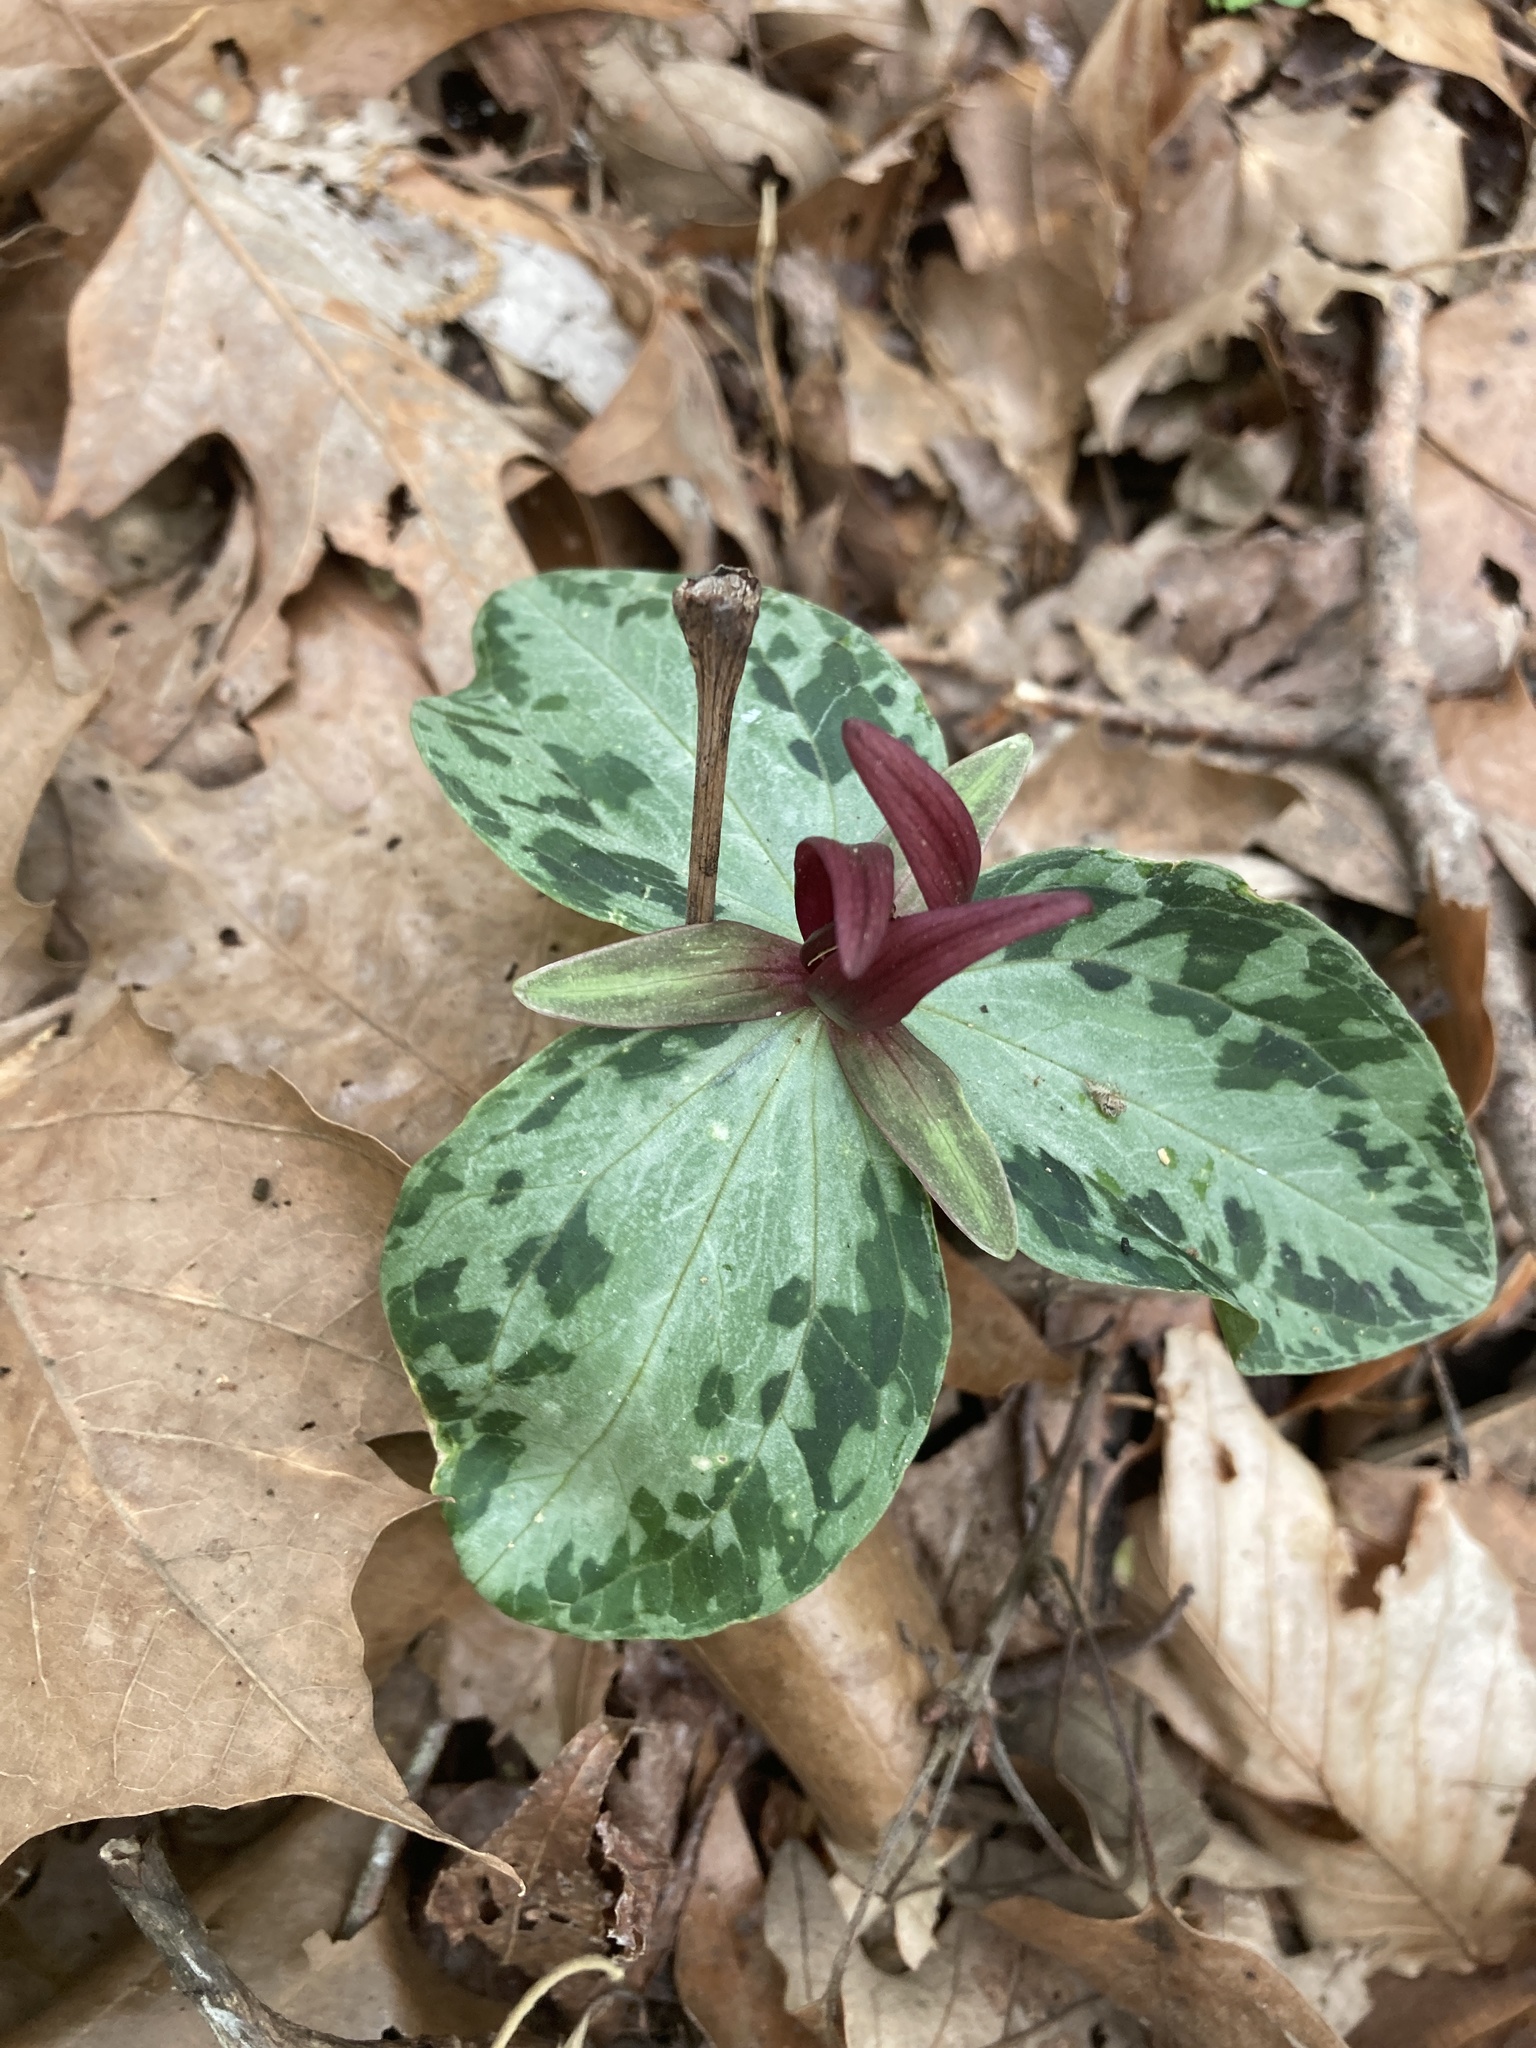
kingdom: Plantae
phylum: Tracheophyta
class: Liliopsida
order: Liliales
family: Melanthiaceae
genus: Trillium
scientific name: Trillium foetidissimum
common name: Mississippi river trillium
